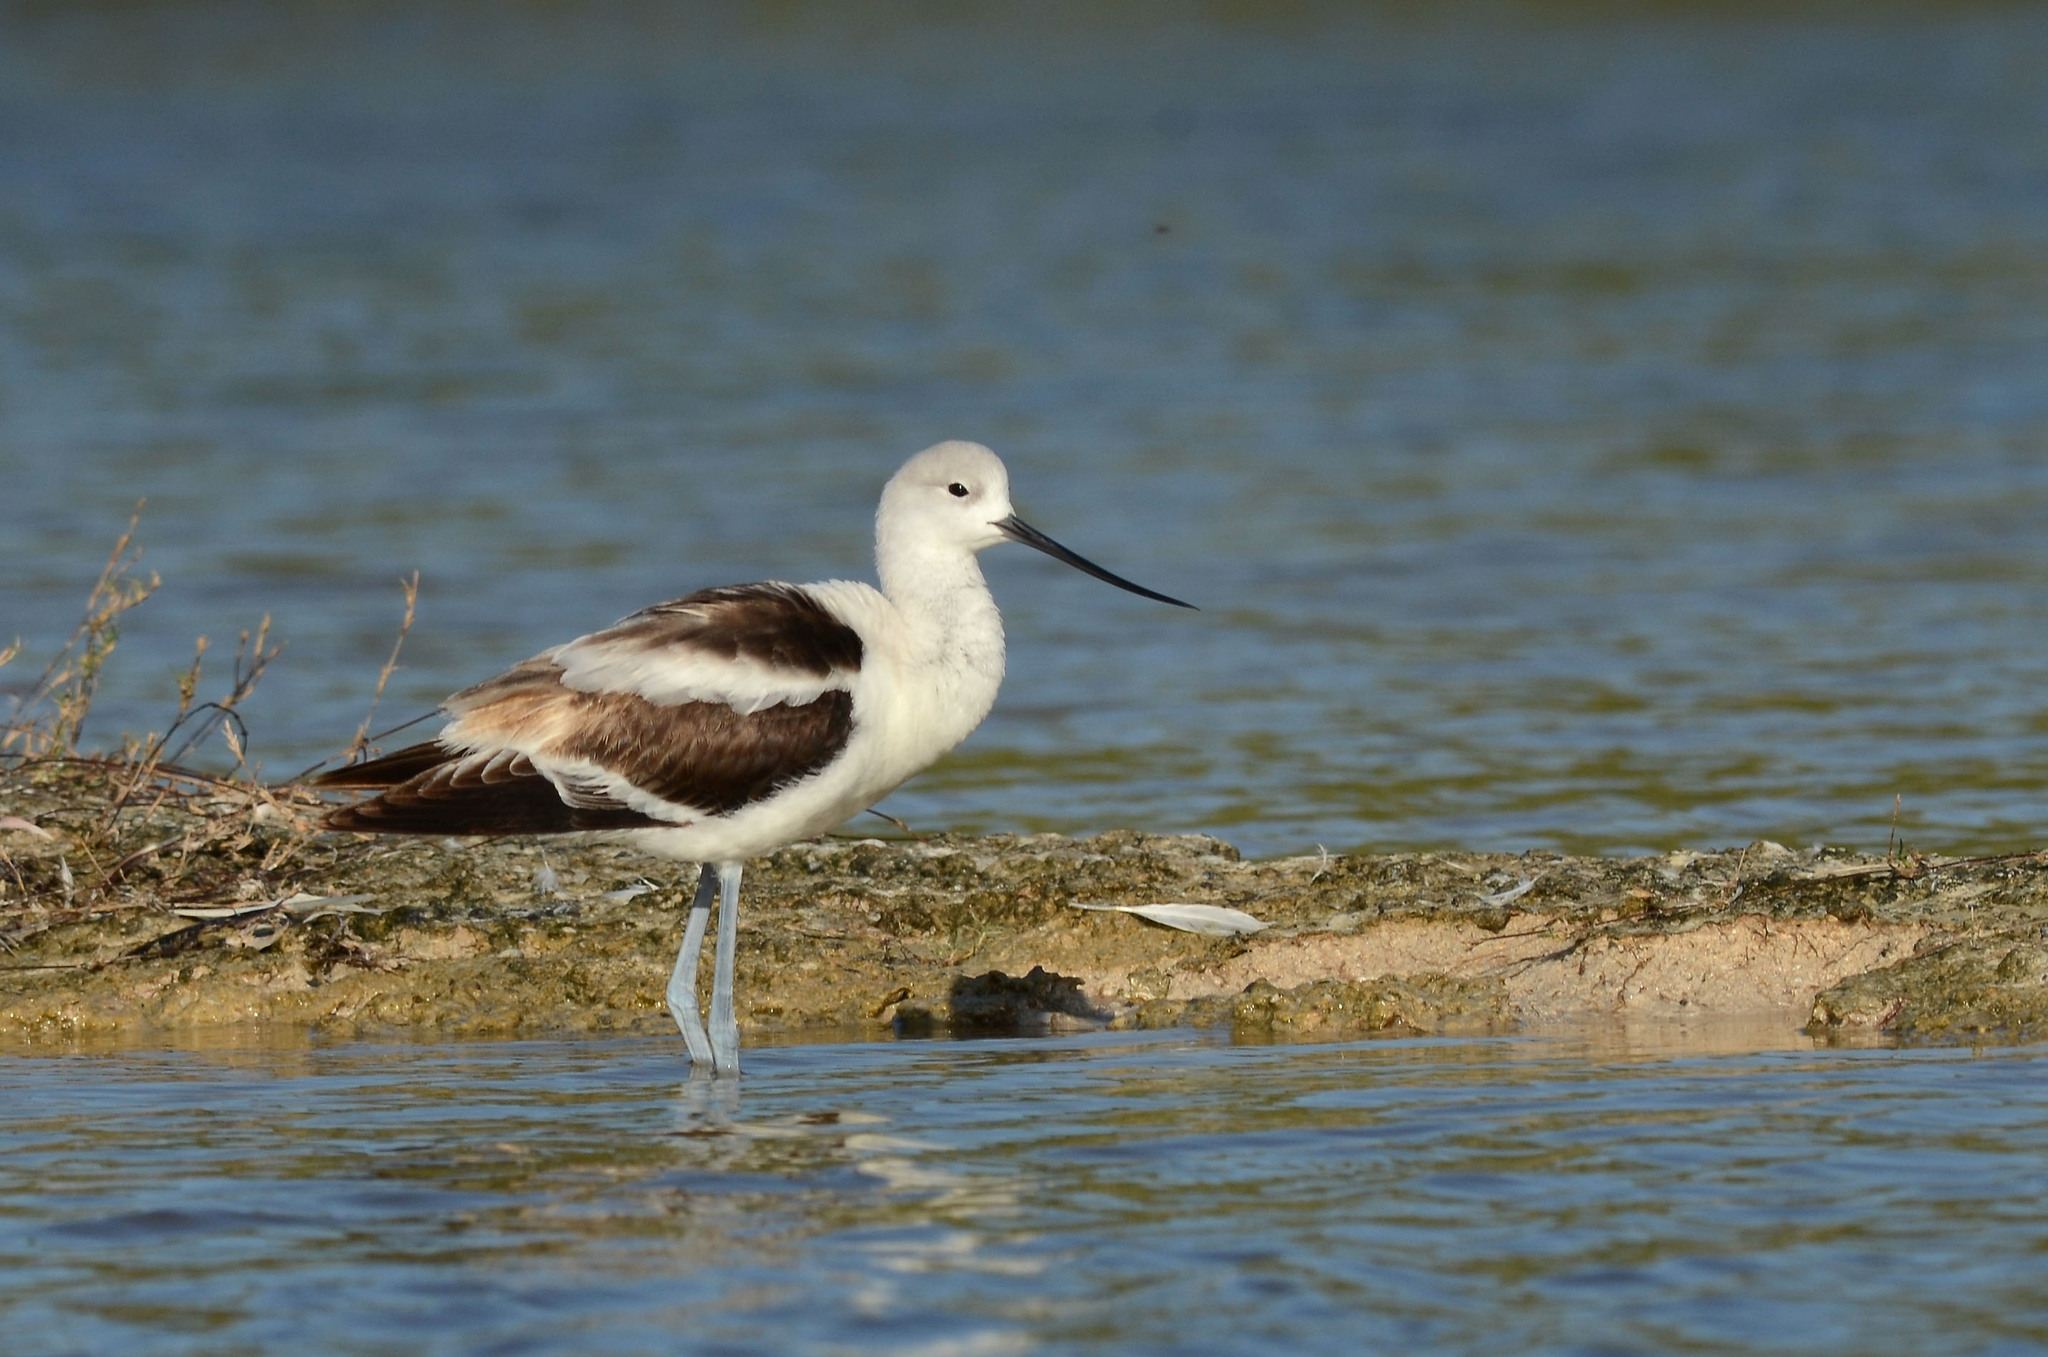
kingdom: Animalia
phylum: Chordata
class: Aves
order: Charadriiformes
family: Recurvirostridae
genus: Recurvirostra
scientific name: Recurvirostra americana
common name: American avocet
